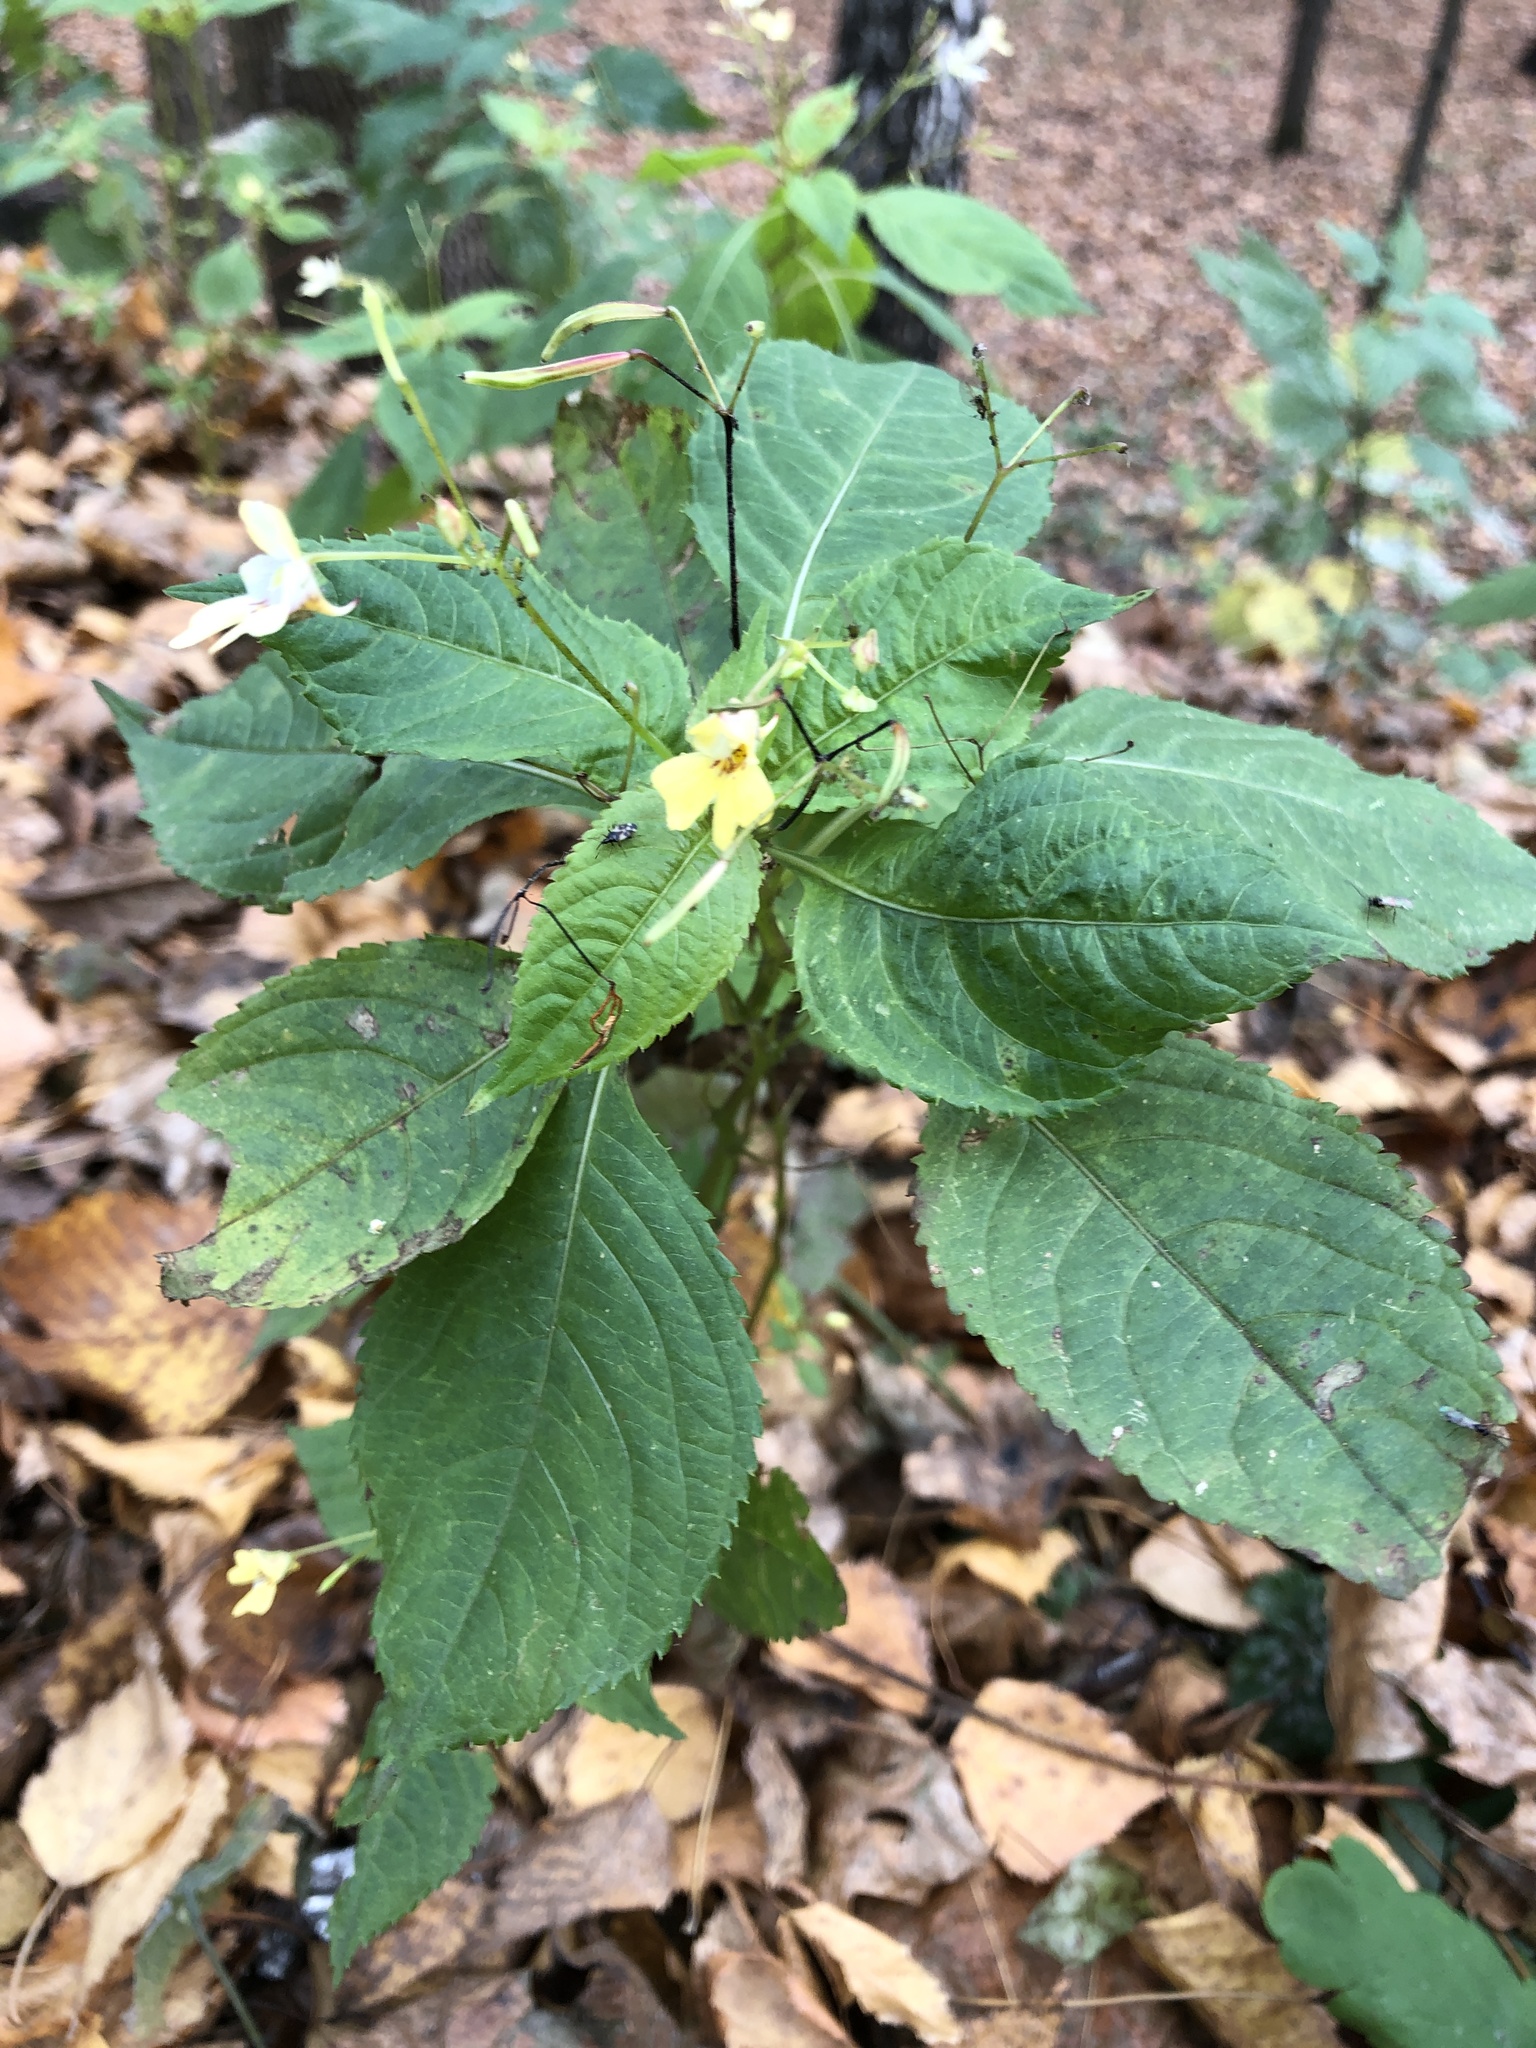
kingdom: Plantae
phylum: Tracheophyta
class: Magnoliopsida
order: Ericales
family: Balsaminaceae
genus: Impatiens
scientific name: Impatiens parviflora
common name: Small balsam
